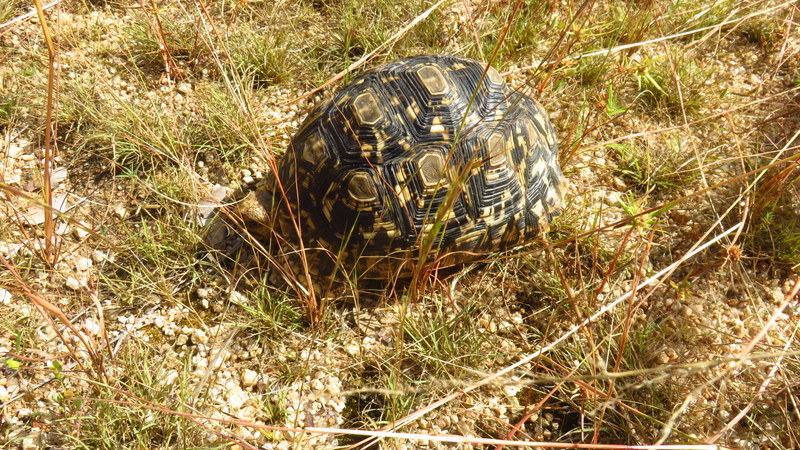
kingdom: Animalia
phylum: Chordata
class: Testudines
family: Testudinidae
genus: Stigmochelys
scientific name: Stigmochelys pardalis
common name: Leopard tortoise
